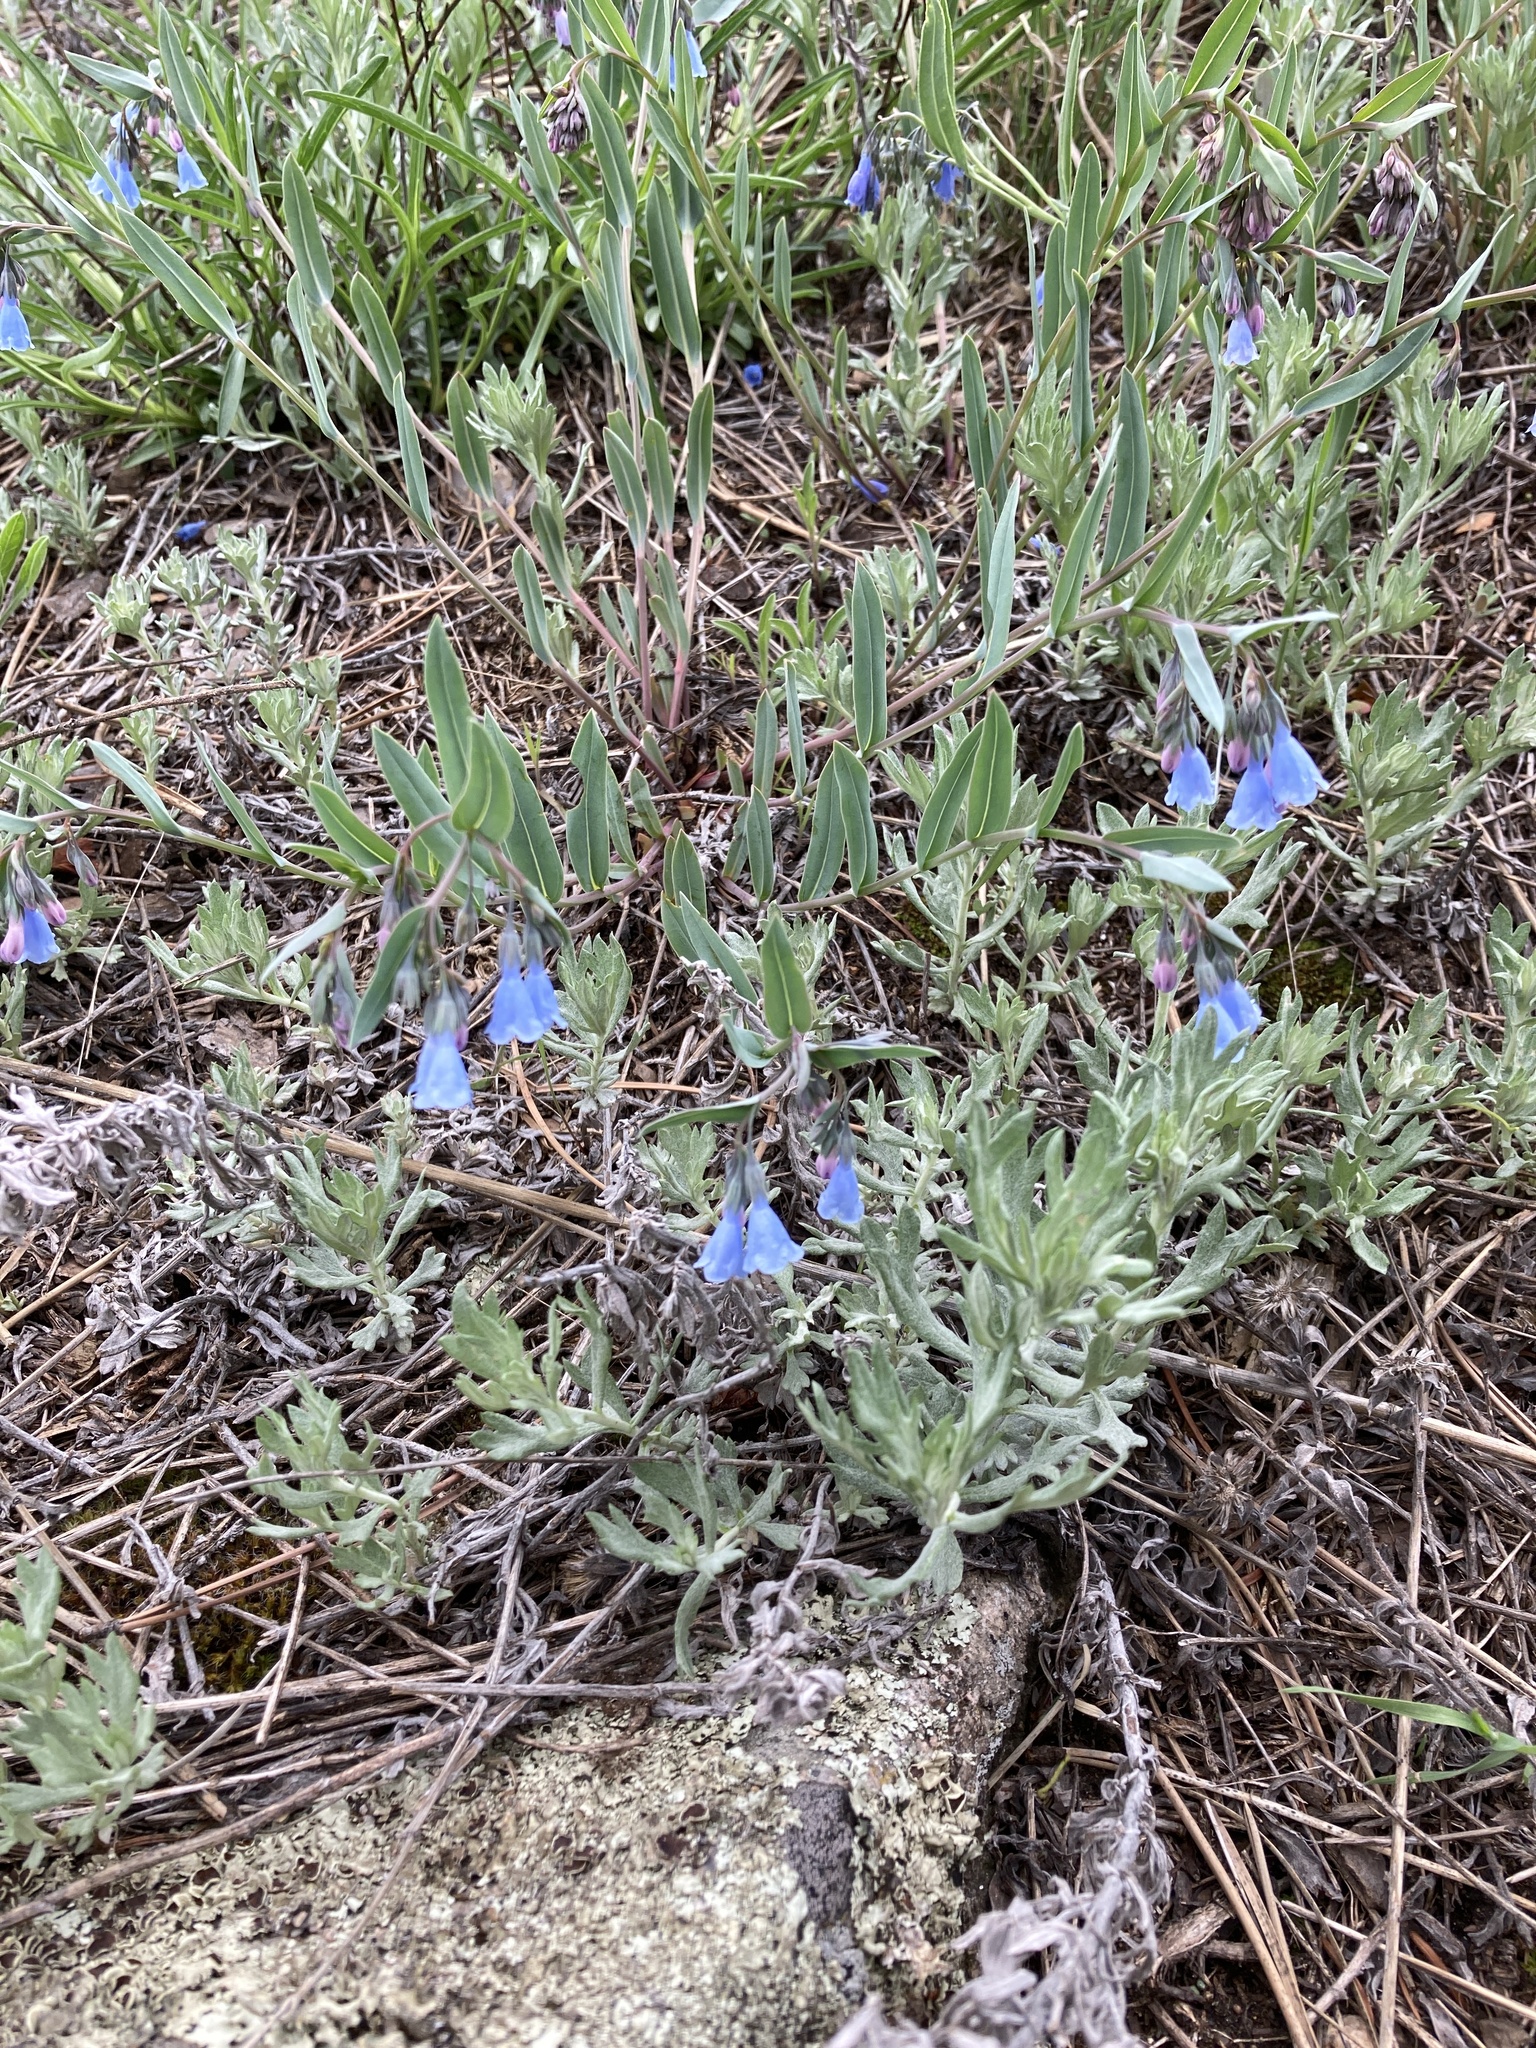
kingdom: Plantae
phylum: Tracheophyta
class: Magnoliopsida
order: Boraginales
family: Boraginaceae
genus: Mertensia
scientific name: Mertensia lanceolata
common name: Lance-leaved bluebells
